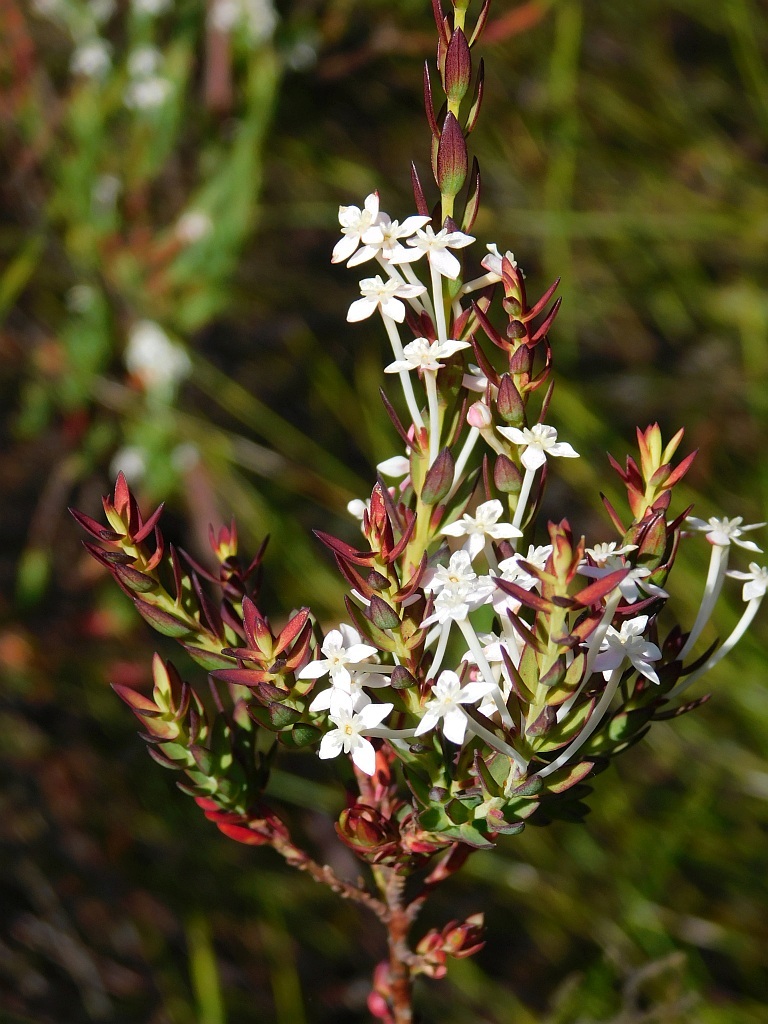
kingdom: Plantae
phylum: Tracheophyta
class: Magnoliopsida
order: Malvales
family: Thymelaeaceae
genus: Struthiola
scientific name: Struthiola myrsinites
